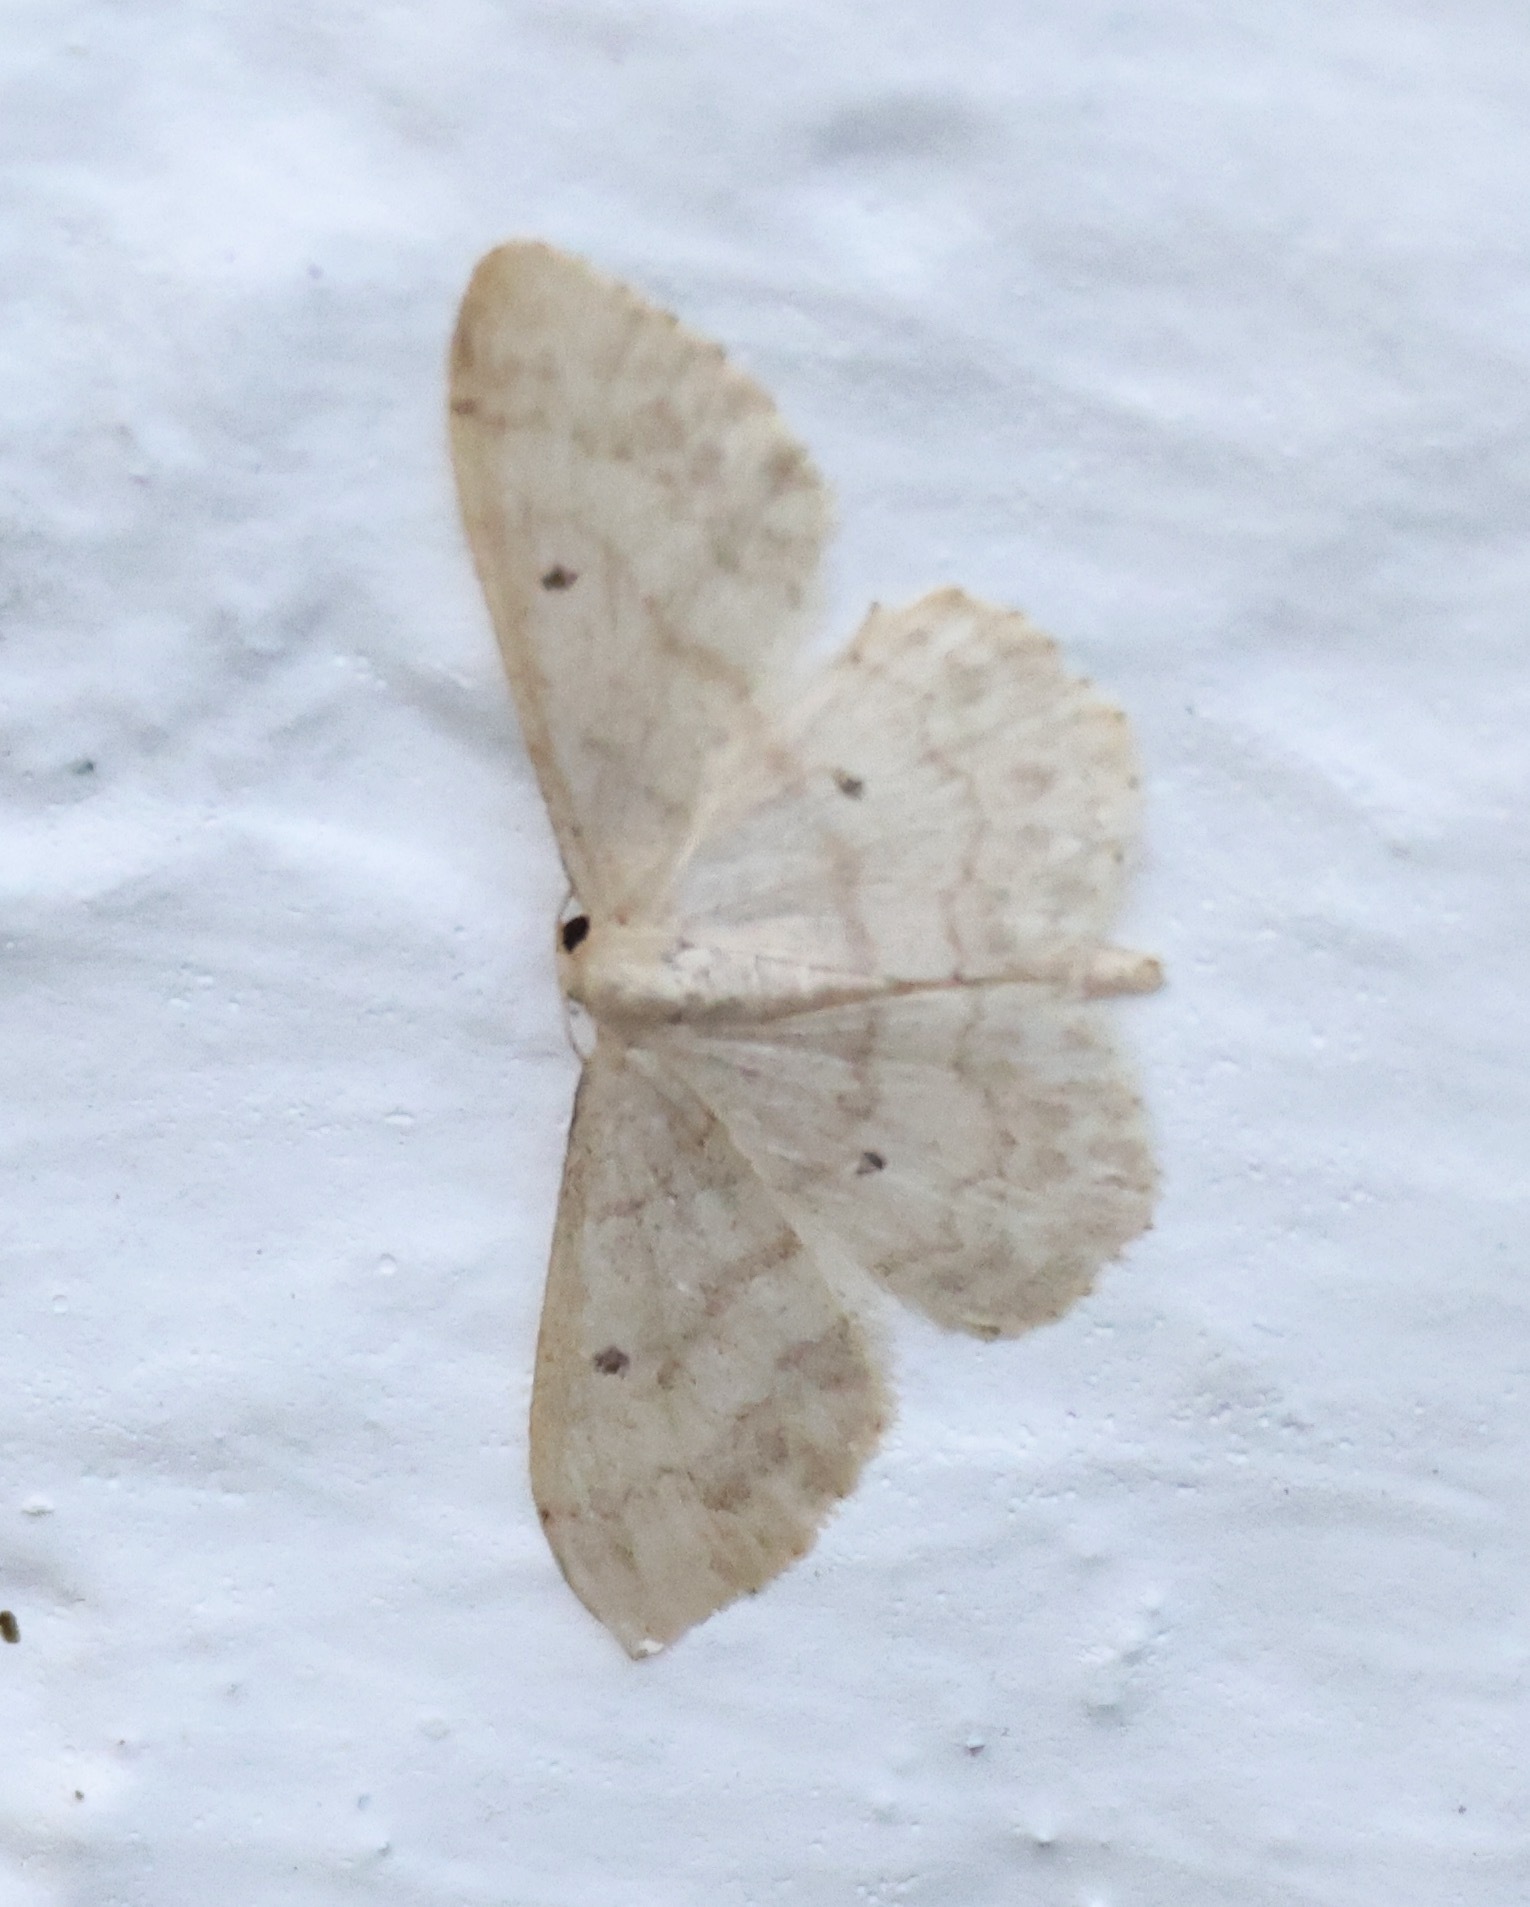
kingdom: Animalia
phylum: Arthropoda
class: Insecta
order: Lepidoptera
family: Geometridae
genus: Idaea
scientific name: Idaea biselata
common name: Small fan-footed wave
